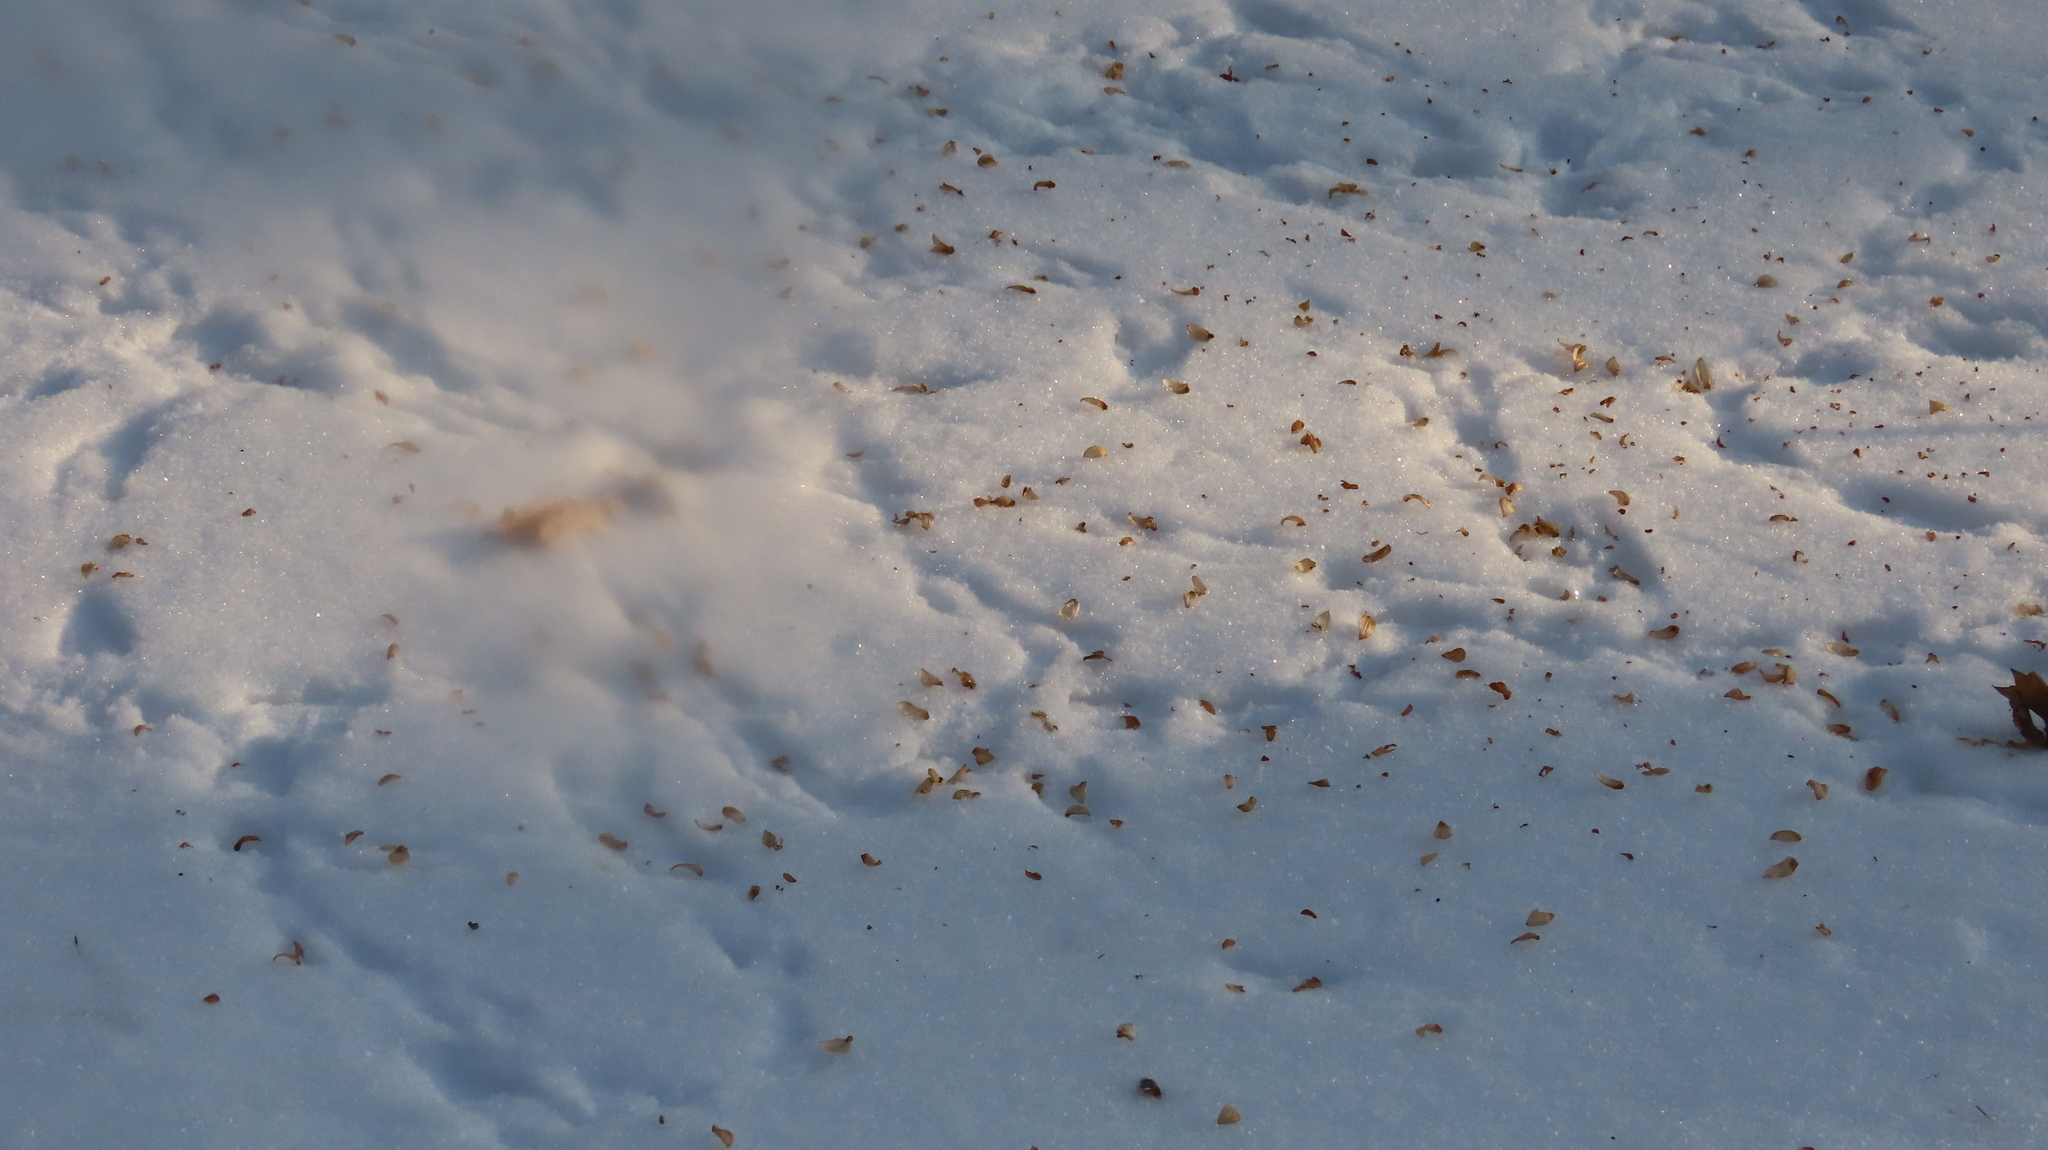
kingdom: Animalia
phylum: Chordata
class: Aves
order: Passeriformes
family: Fringillidae
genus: Acanthis
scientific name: Acanthis flammea
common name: Common redpoll
